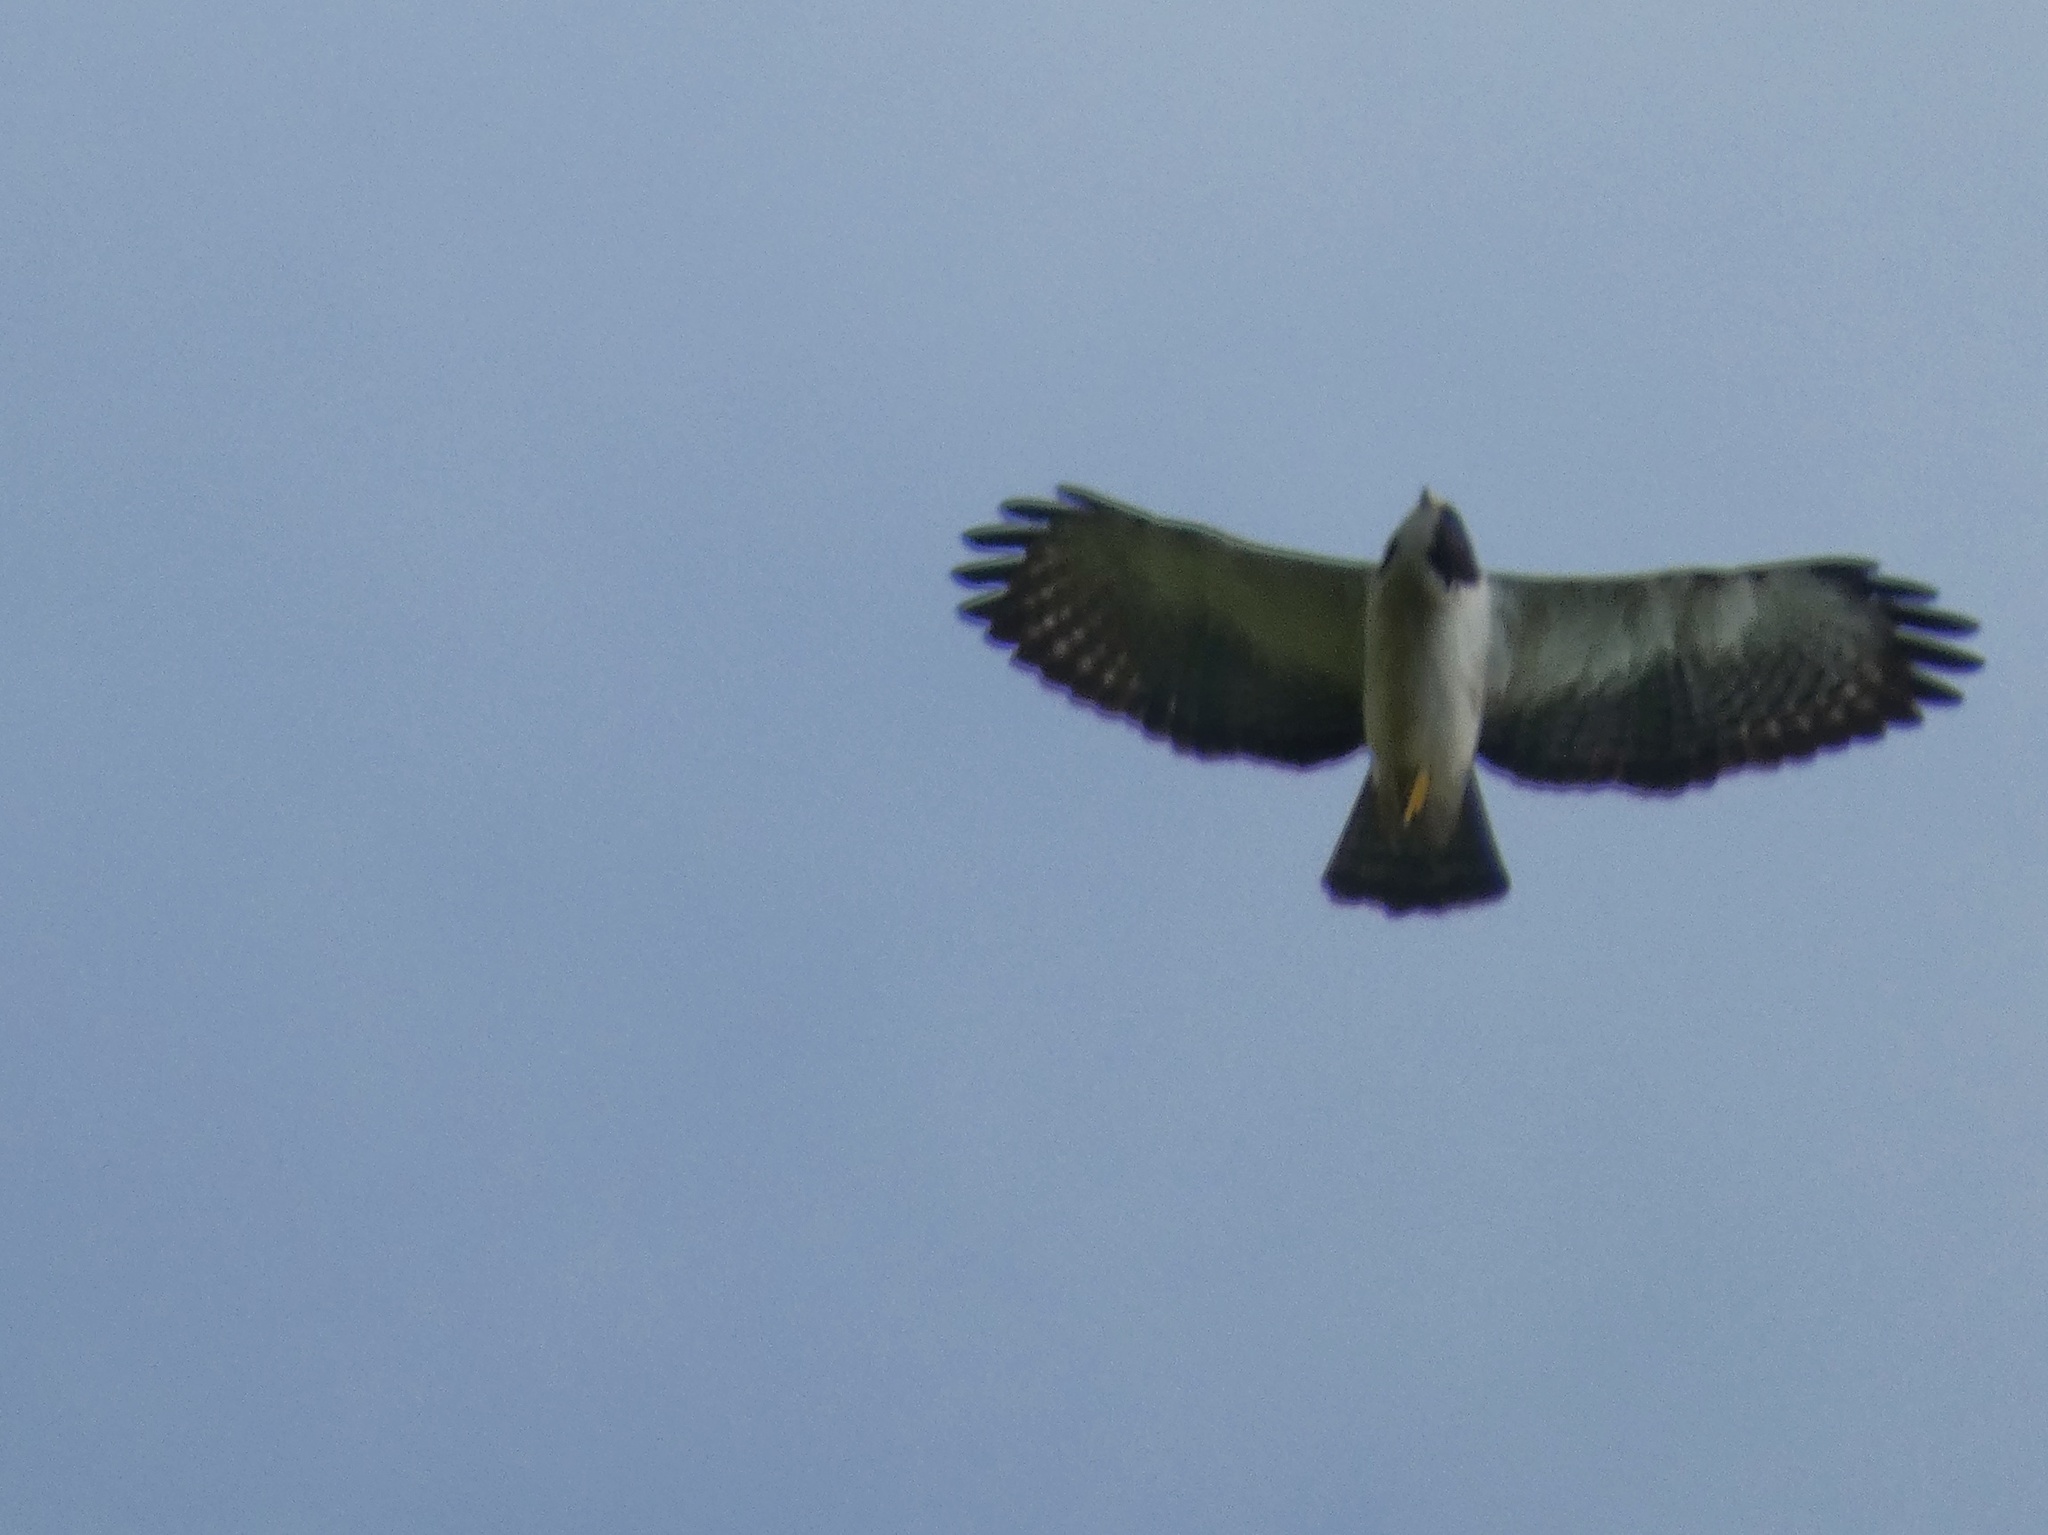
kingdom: Animalia
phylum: Chordata
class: Aves
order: Accipitriformes
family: Accipitridae
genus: Buteo
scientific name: Buteo brachyurus
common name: Short-tailed hawk
